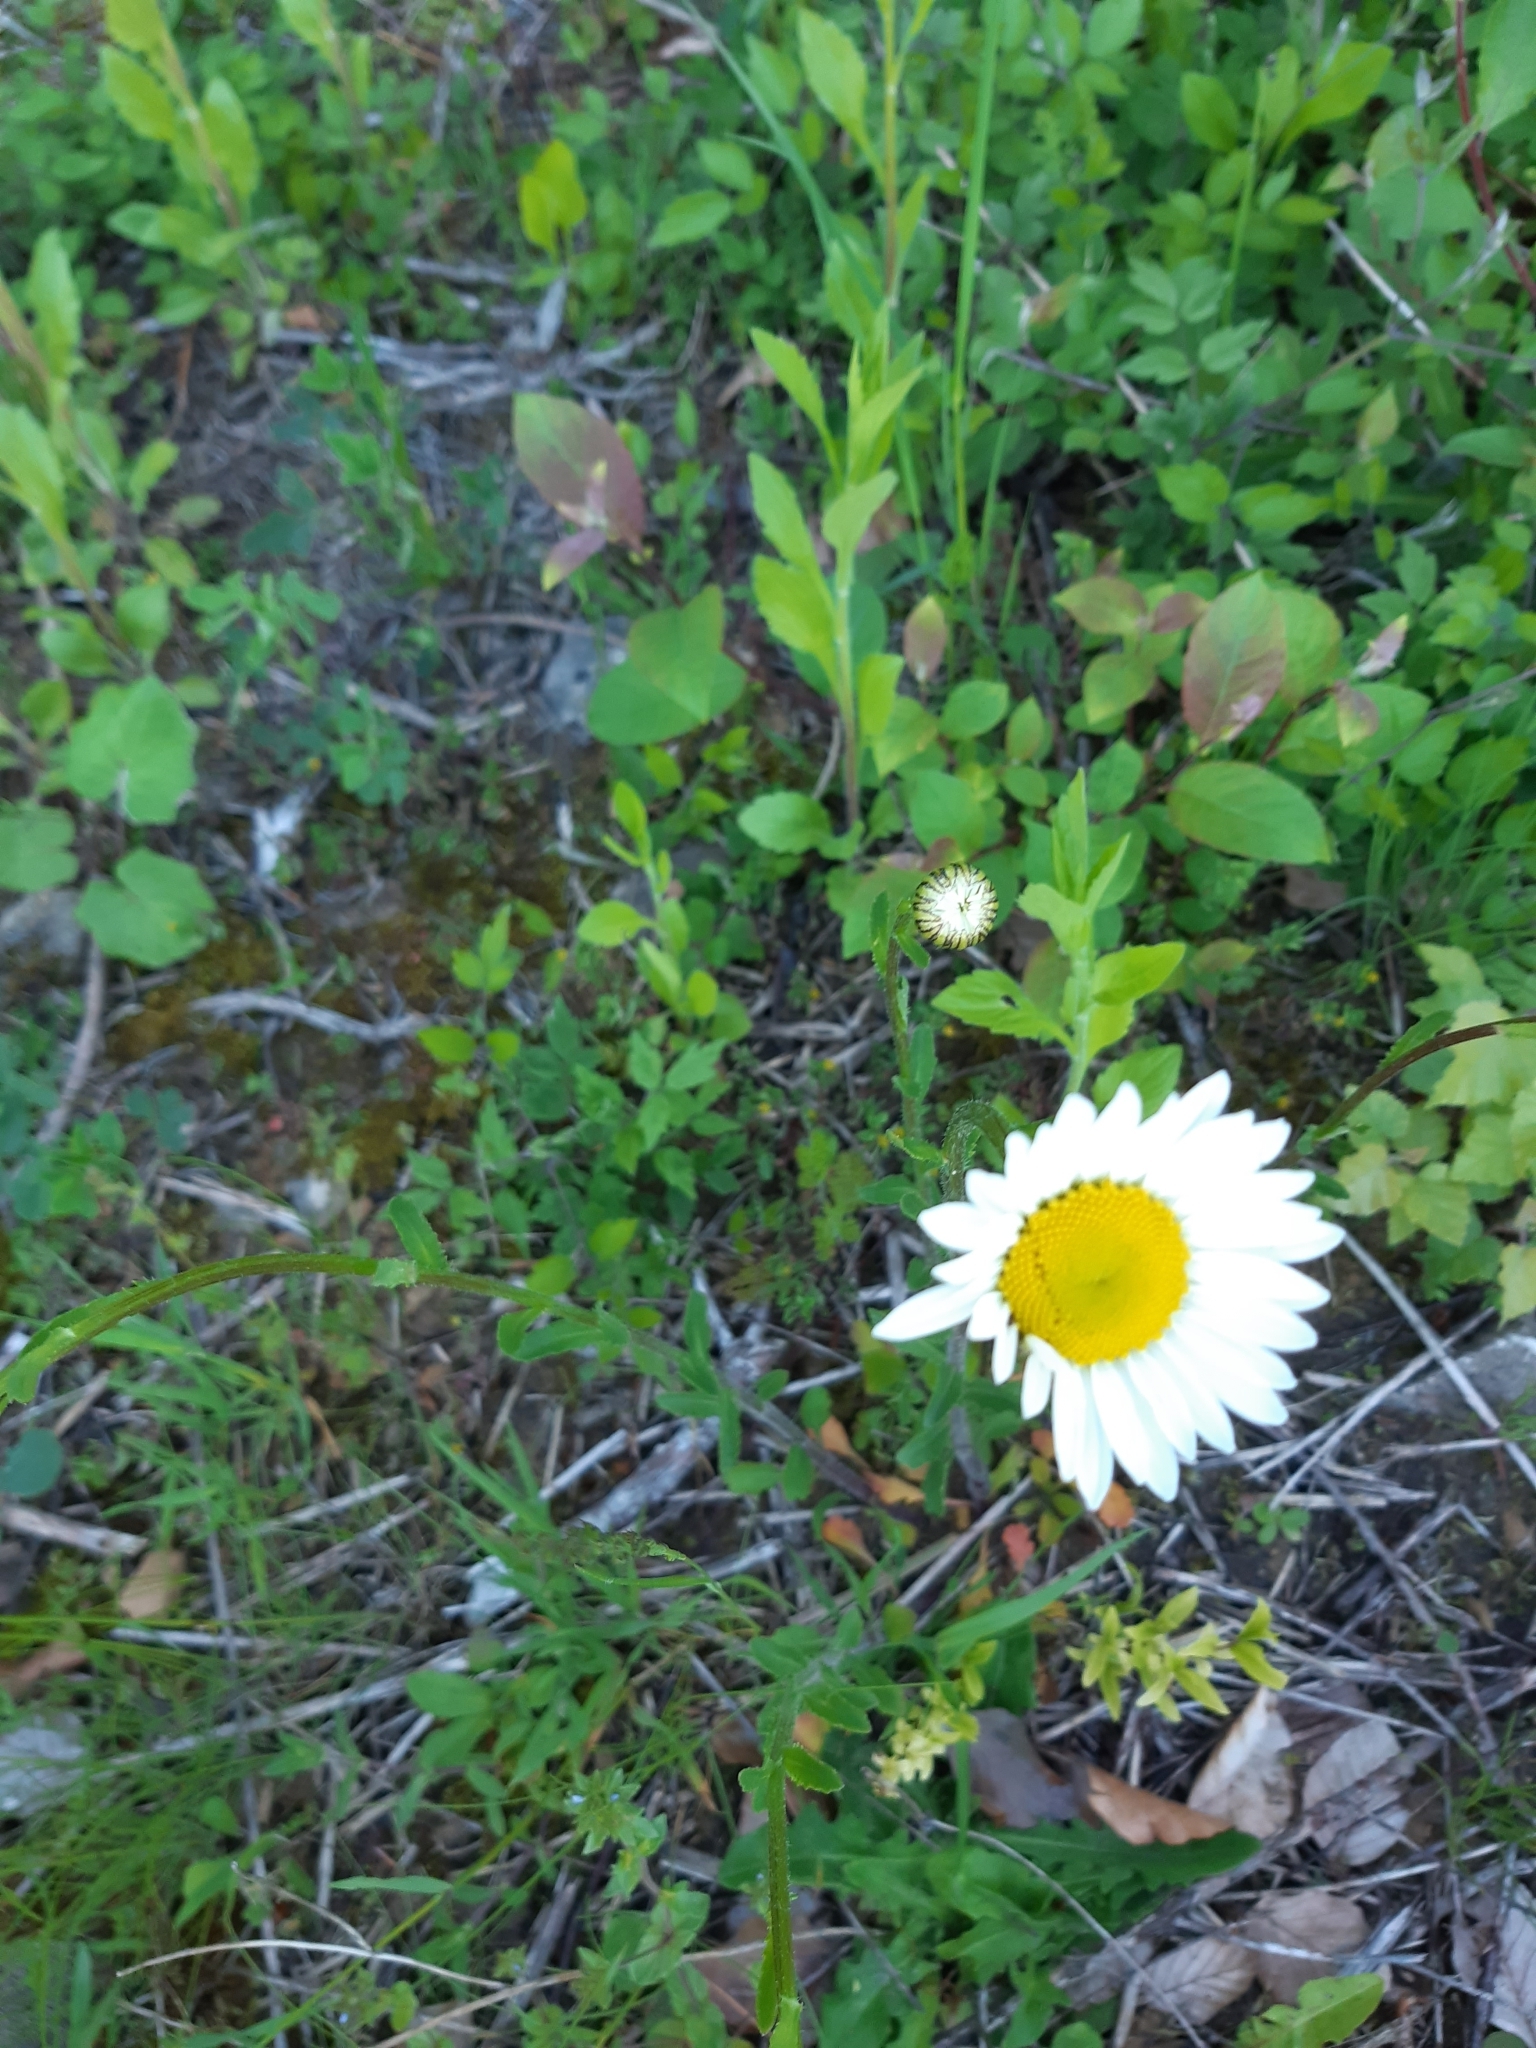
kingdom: Plantae
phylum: Tracheophyta
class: Magnoliopsida
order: Asterales
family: Asteraceae
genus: Leucanthemum
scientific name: Leucanthemum vulgare
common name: Oxeye daisy
